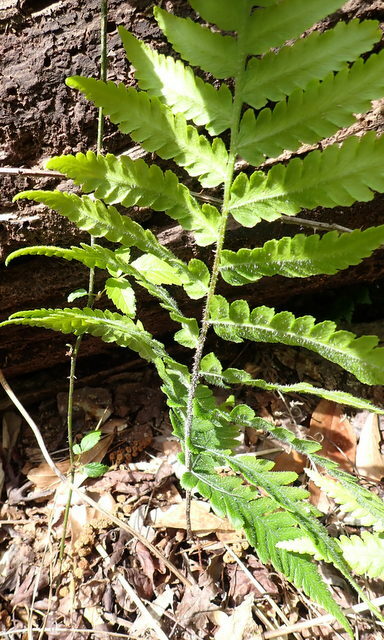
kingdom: Plantae
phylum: Tracheophyta
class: Polypodiopsida
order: Polypodiales
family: Athyriaceae
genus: Deparia
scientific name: Deparia petersenii
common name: Japanese false spleenwort
